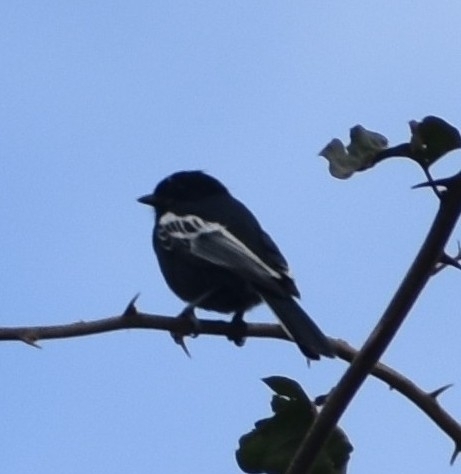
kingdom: Animalia
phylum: Chordata
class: Aves
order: Passeriformes
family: Paridae
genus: Parus
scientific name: Parus niger
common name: Southern black tit
